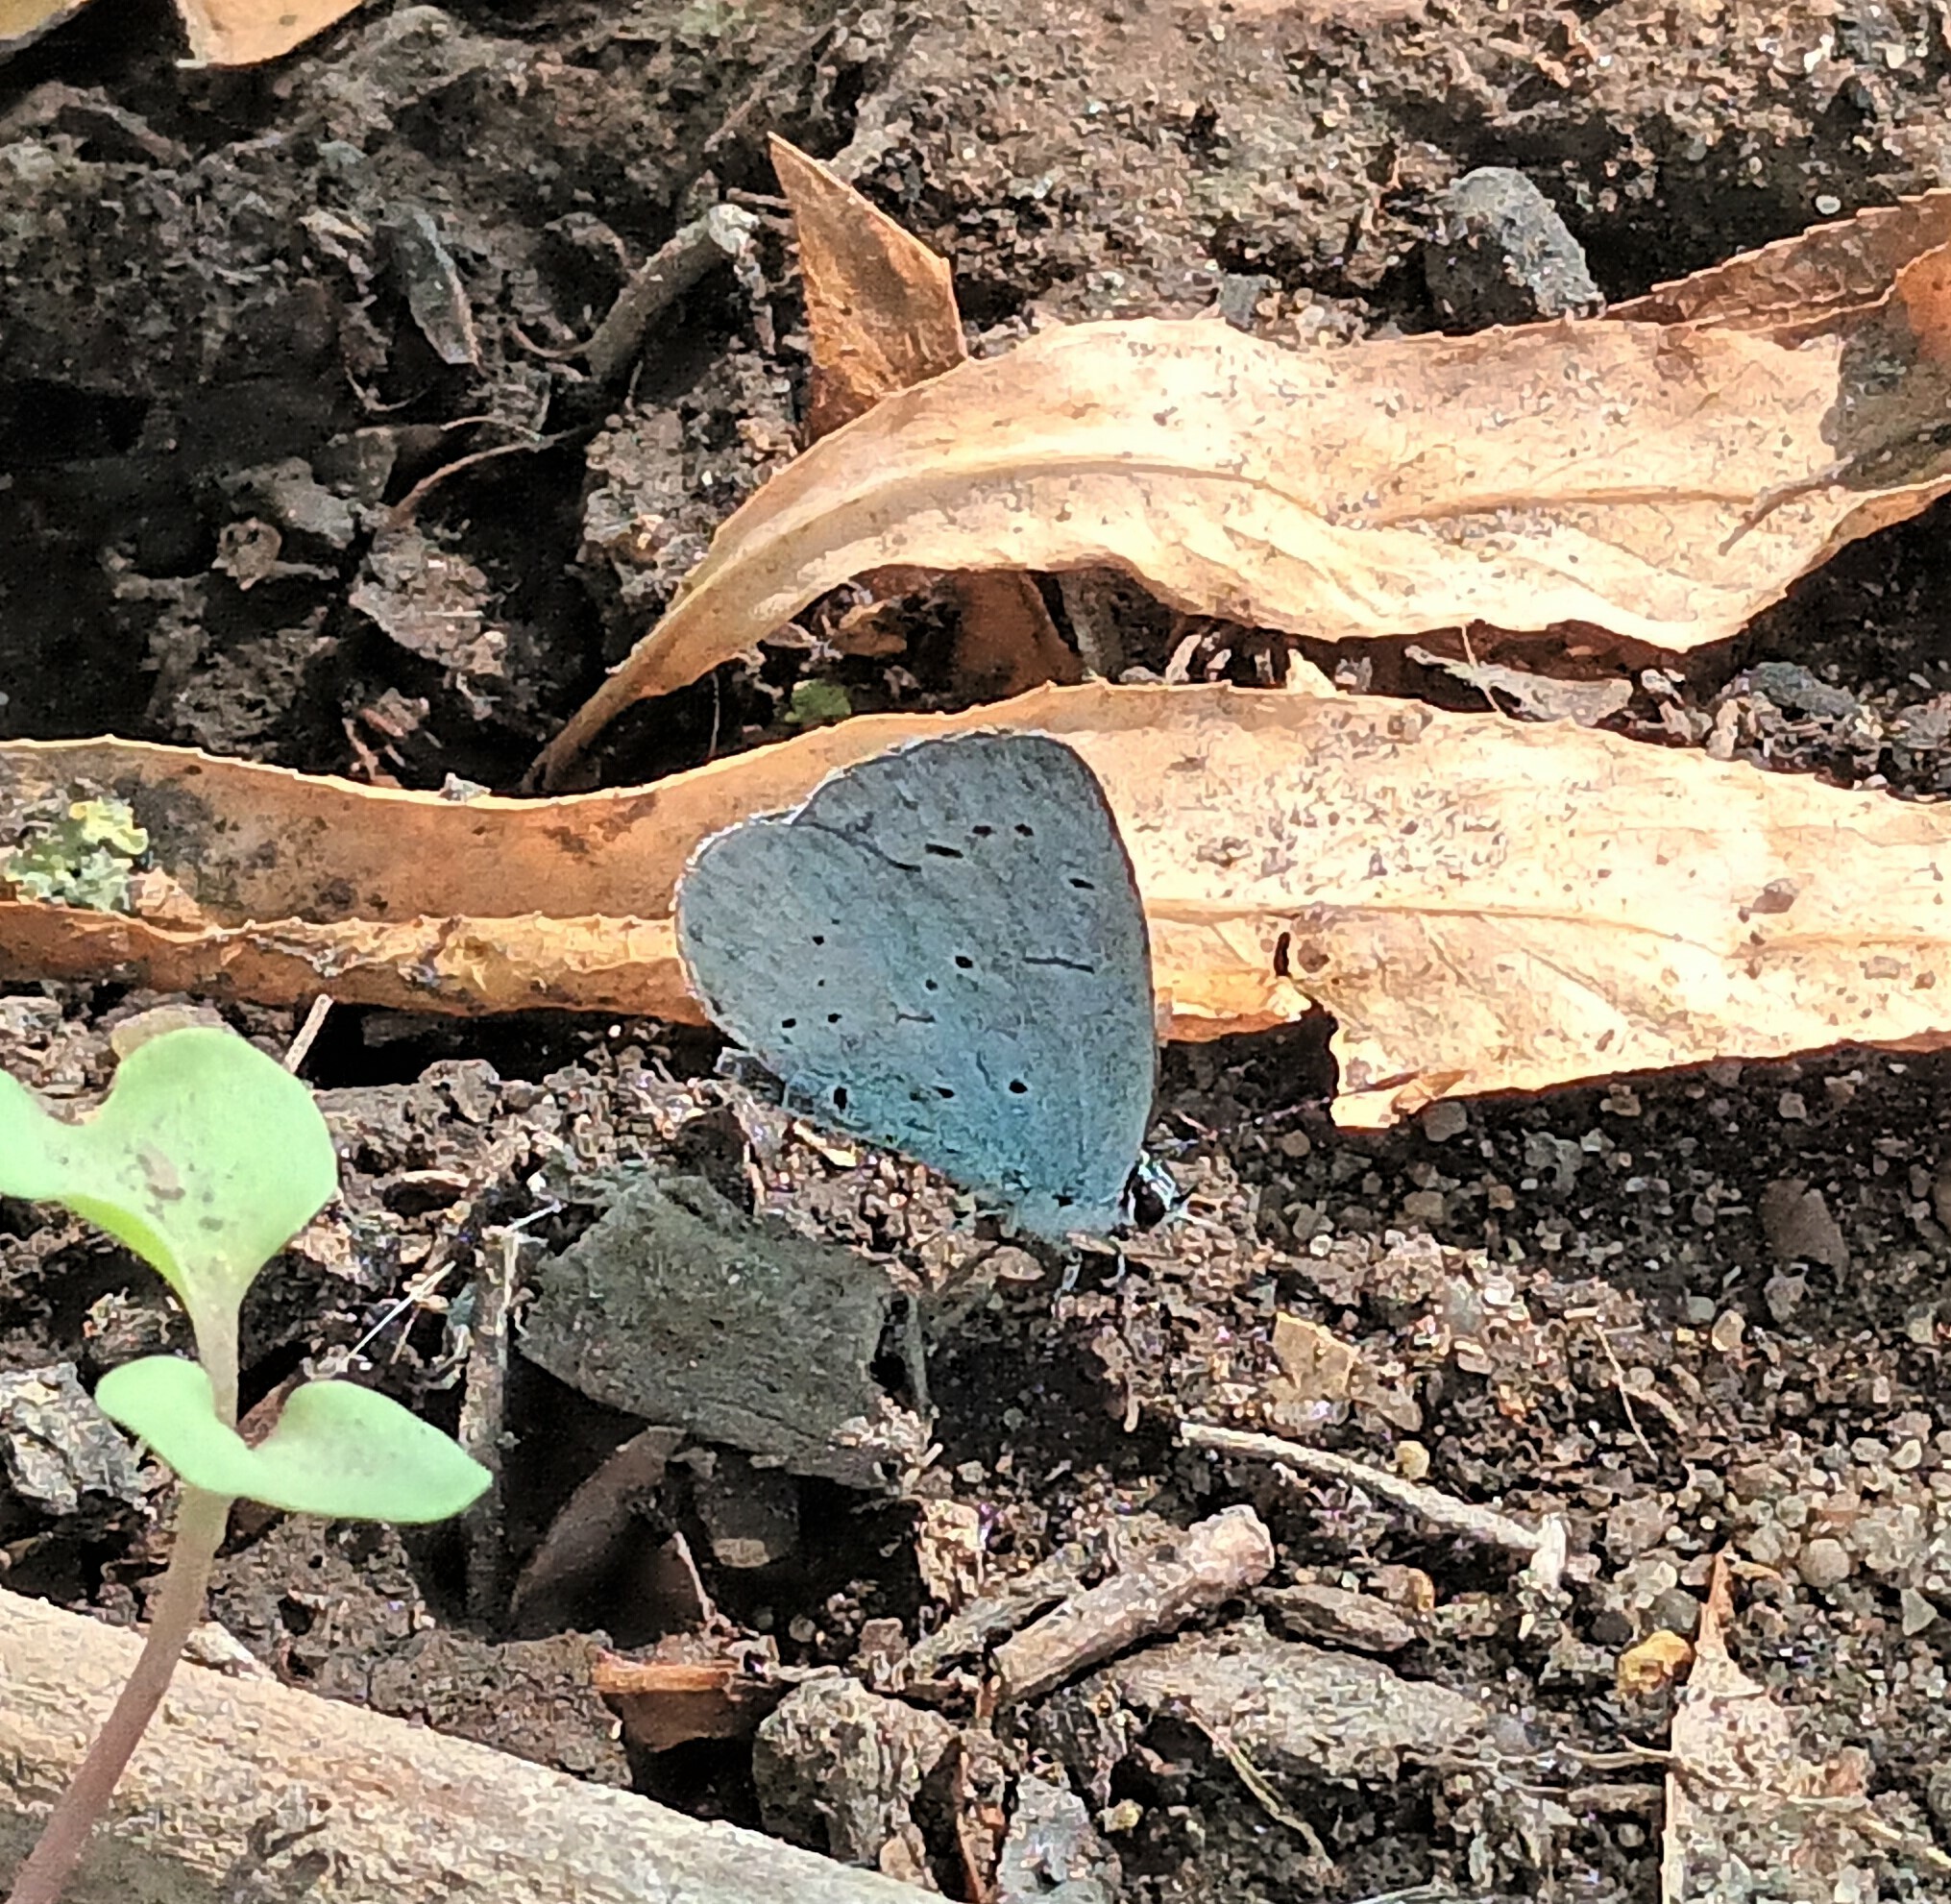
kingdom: Animalia
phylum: Arthropoda
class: Insecta
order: Lepidoptera
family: Lycaenidae
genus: Celastrina
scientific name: Celastrina argiolus
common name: Holly blue
